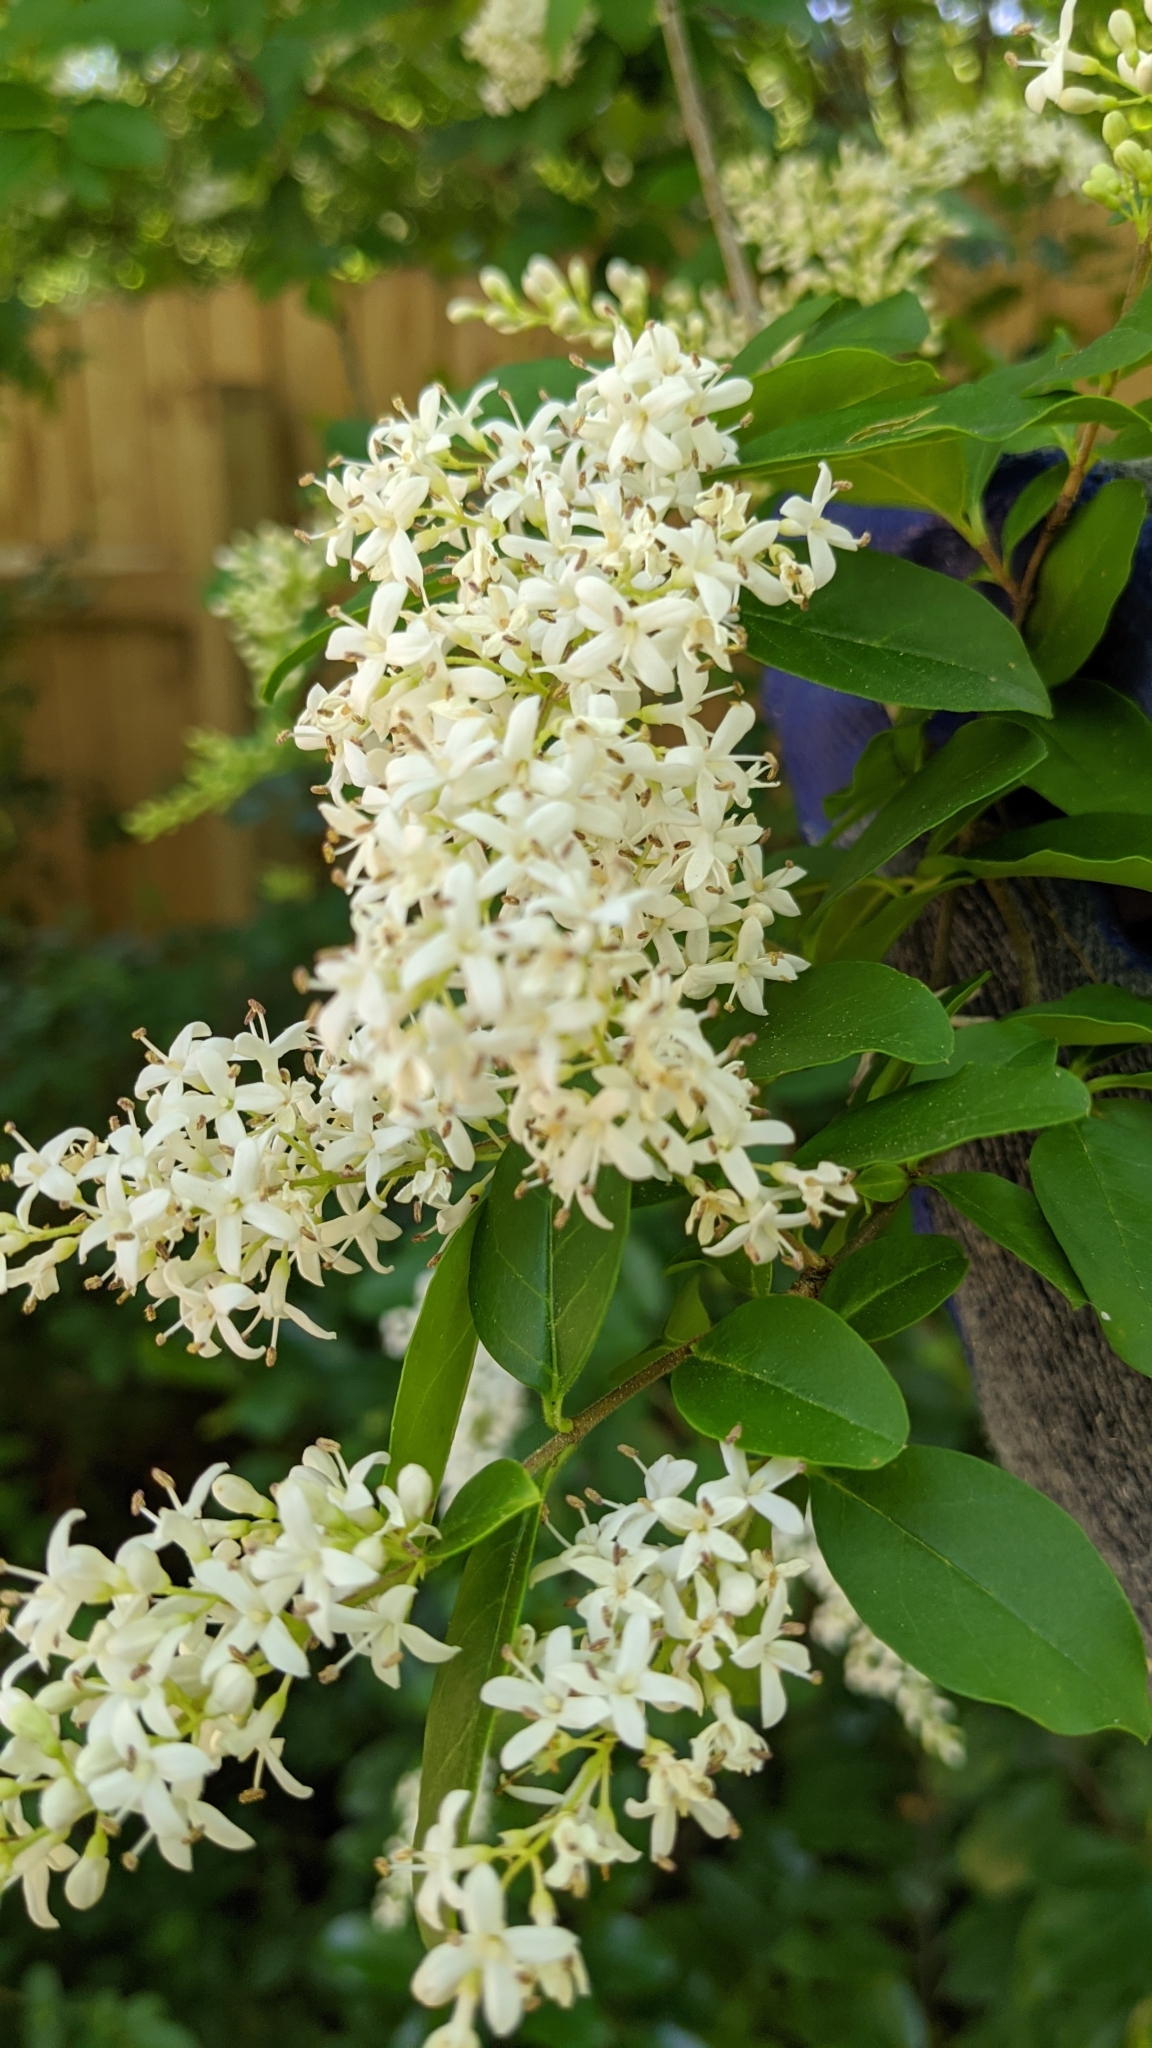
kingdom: Plantae
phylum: Tracheophyta
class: Magnoliopsida
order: Lamiales
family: Oleaceae
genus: Ligustrum
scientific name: Ligustrum sinense
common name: Chinese privet
